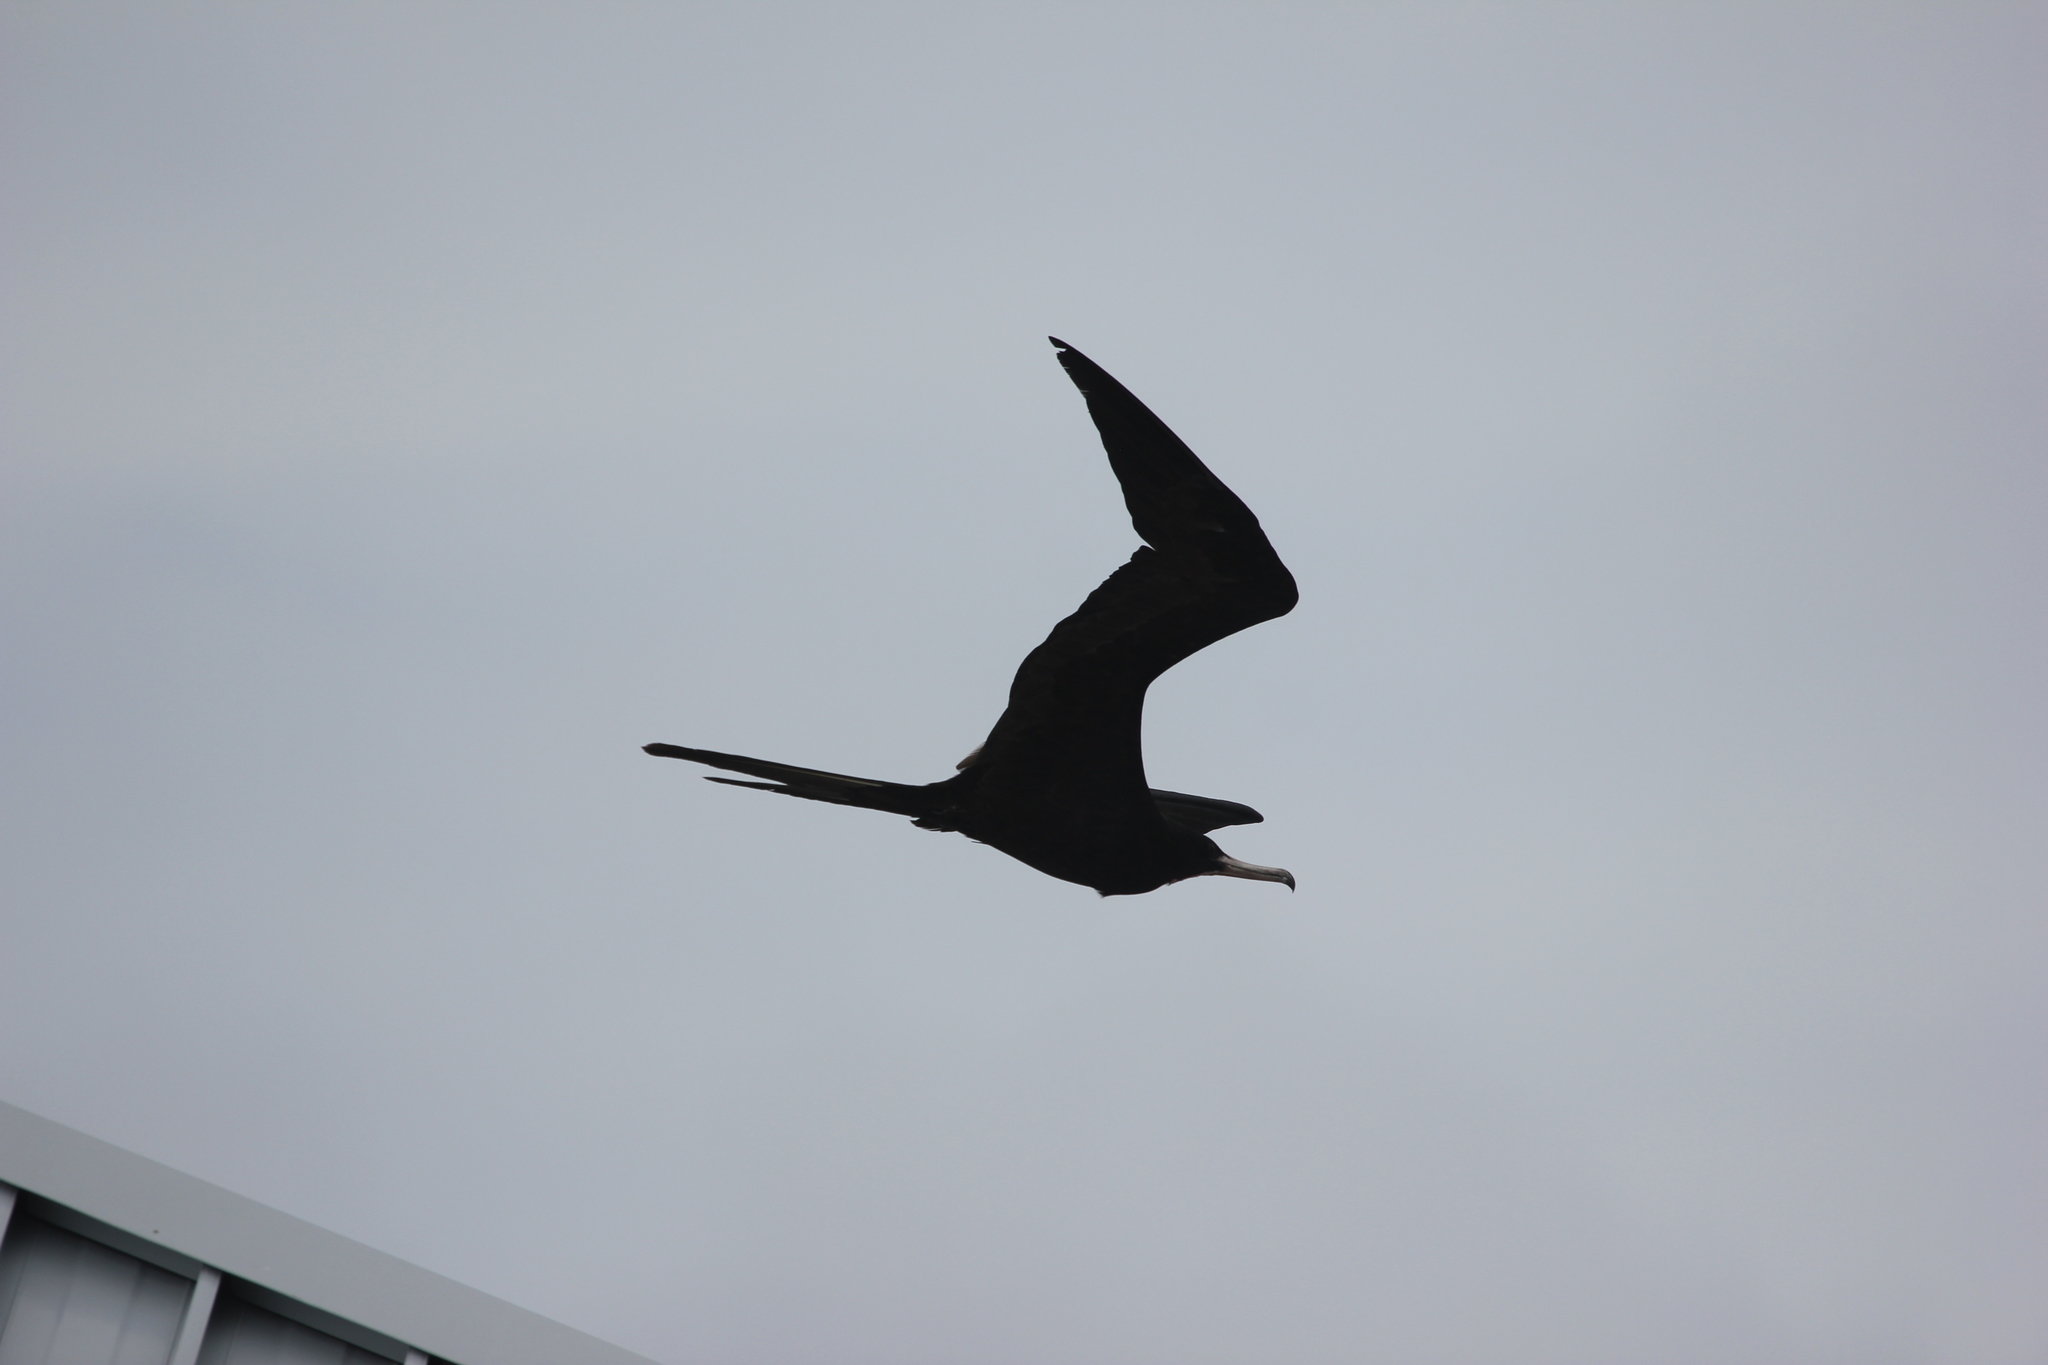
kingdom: Animalia
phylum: Chordata
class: Aves
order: Suliformes
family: Fregatidae
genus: Fregata
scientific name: Fregata magnificens
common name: Magnificent frigatebird
